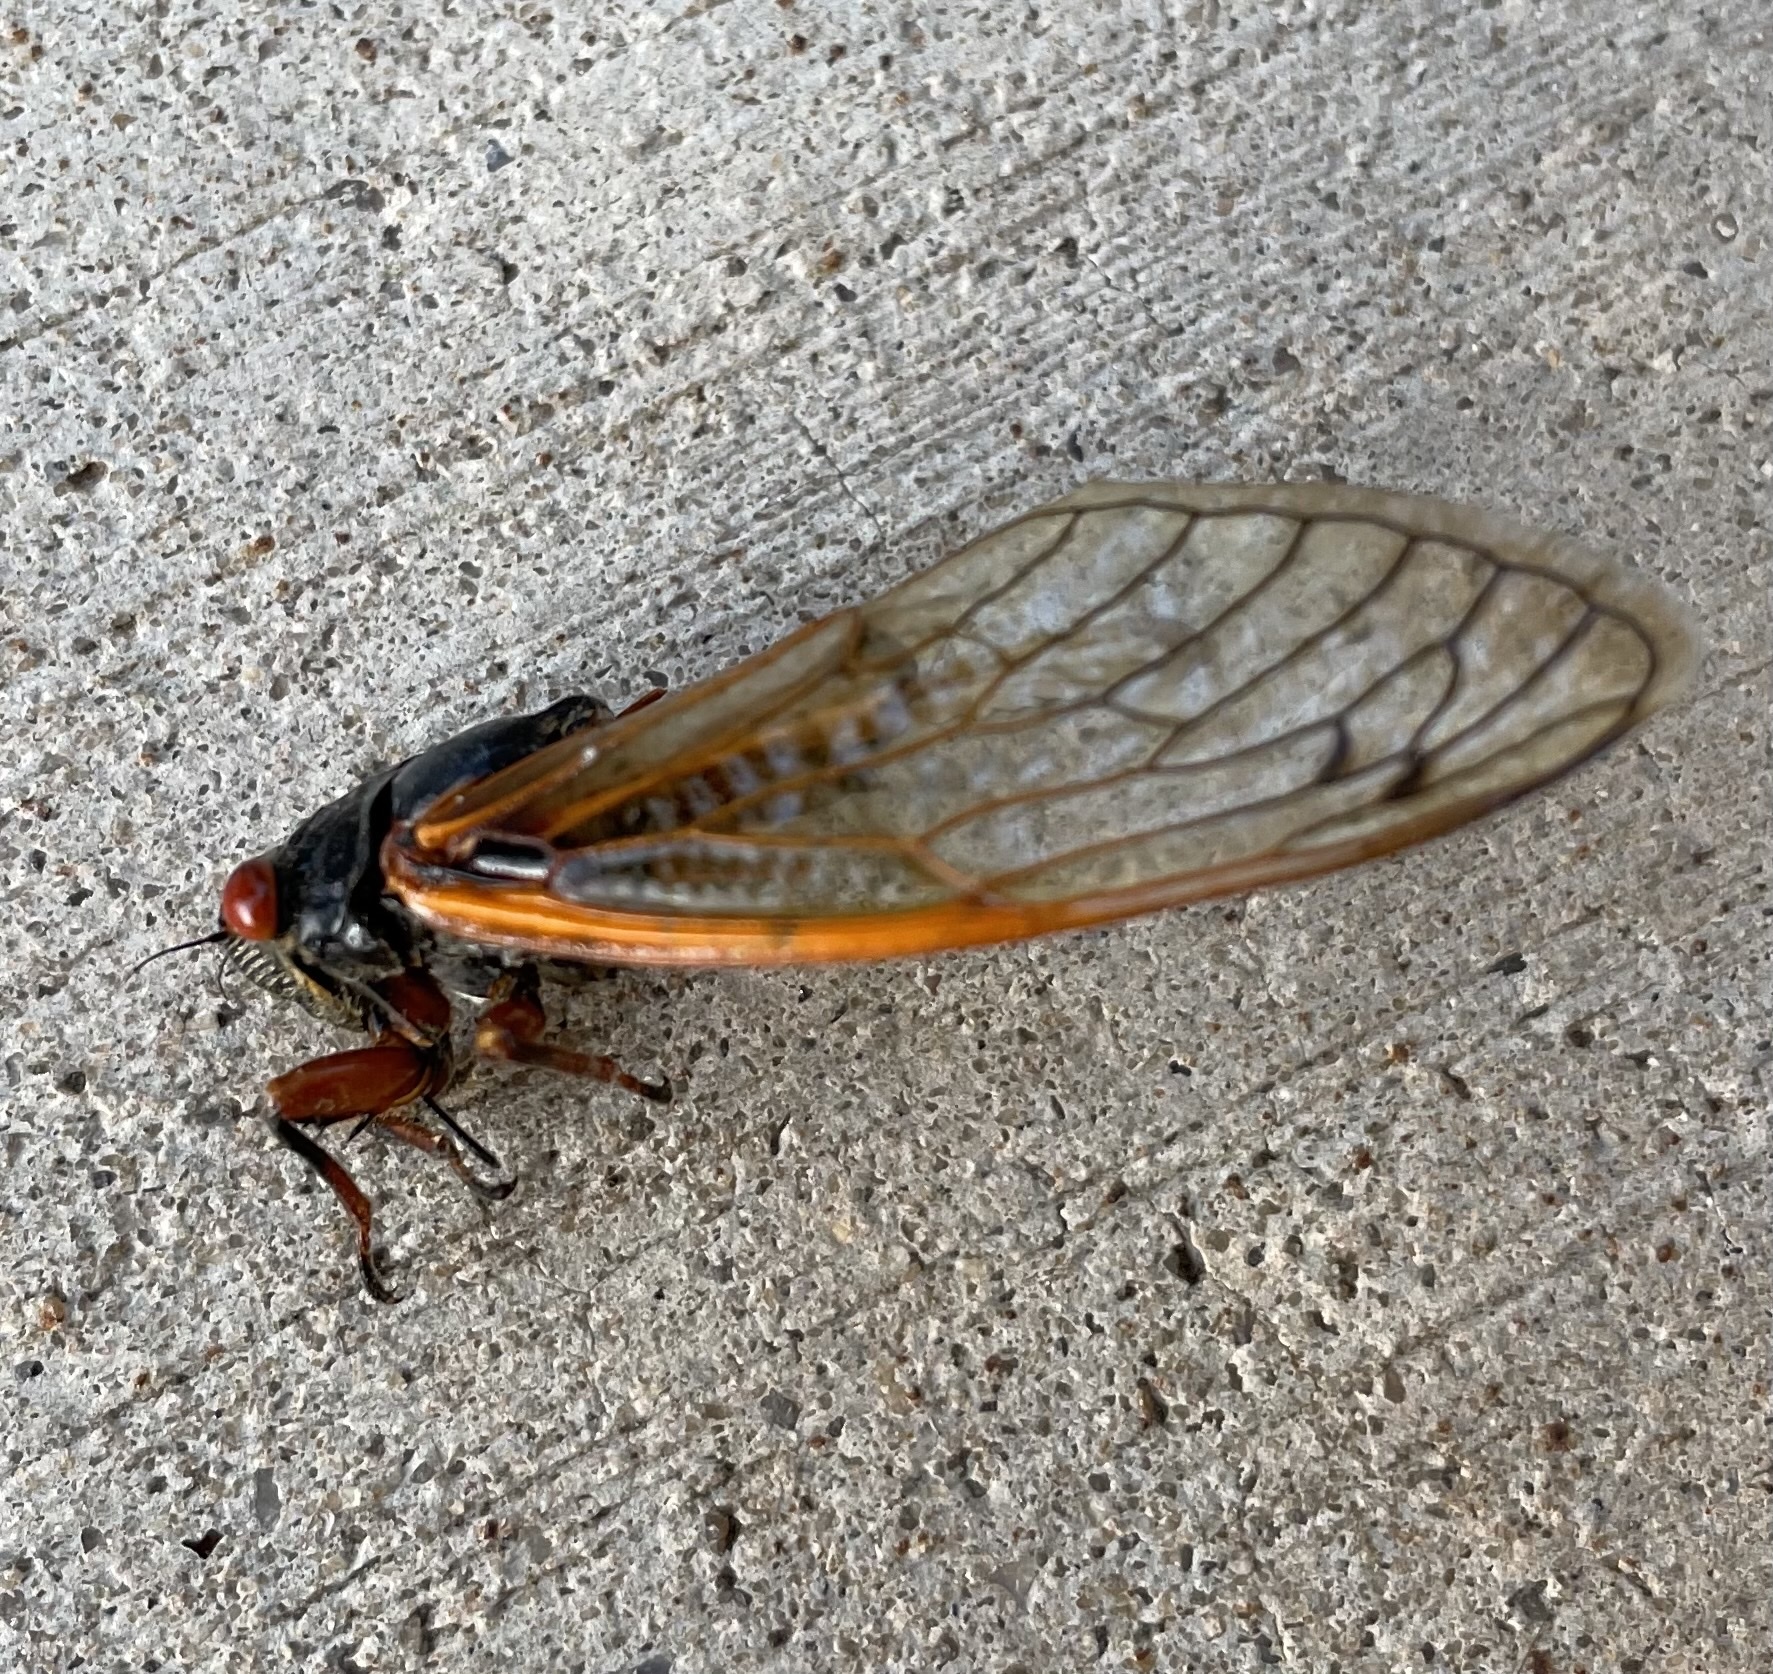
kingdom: Animalia
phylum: Arthropoda
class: Insecta
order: Hemiptera
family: Cicadidae
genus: Magicicada
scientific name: Magicicada
